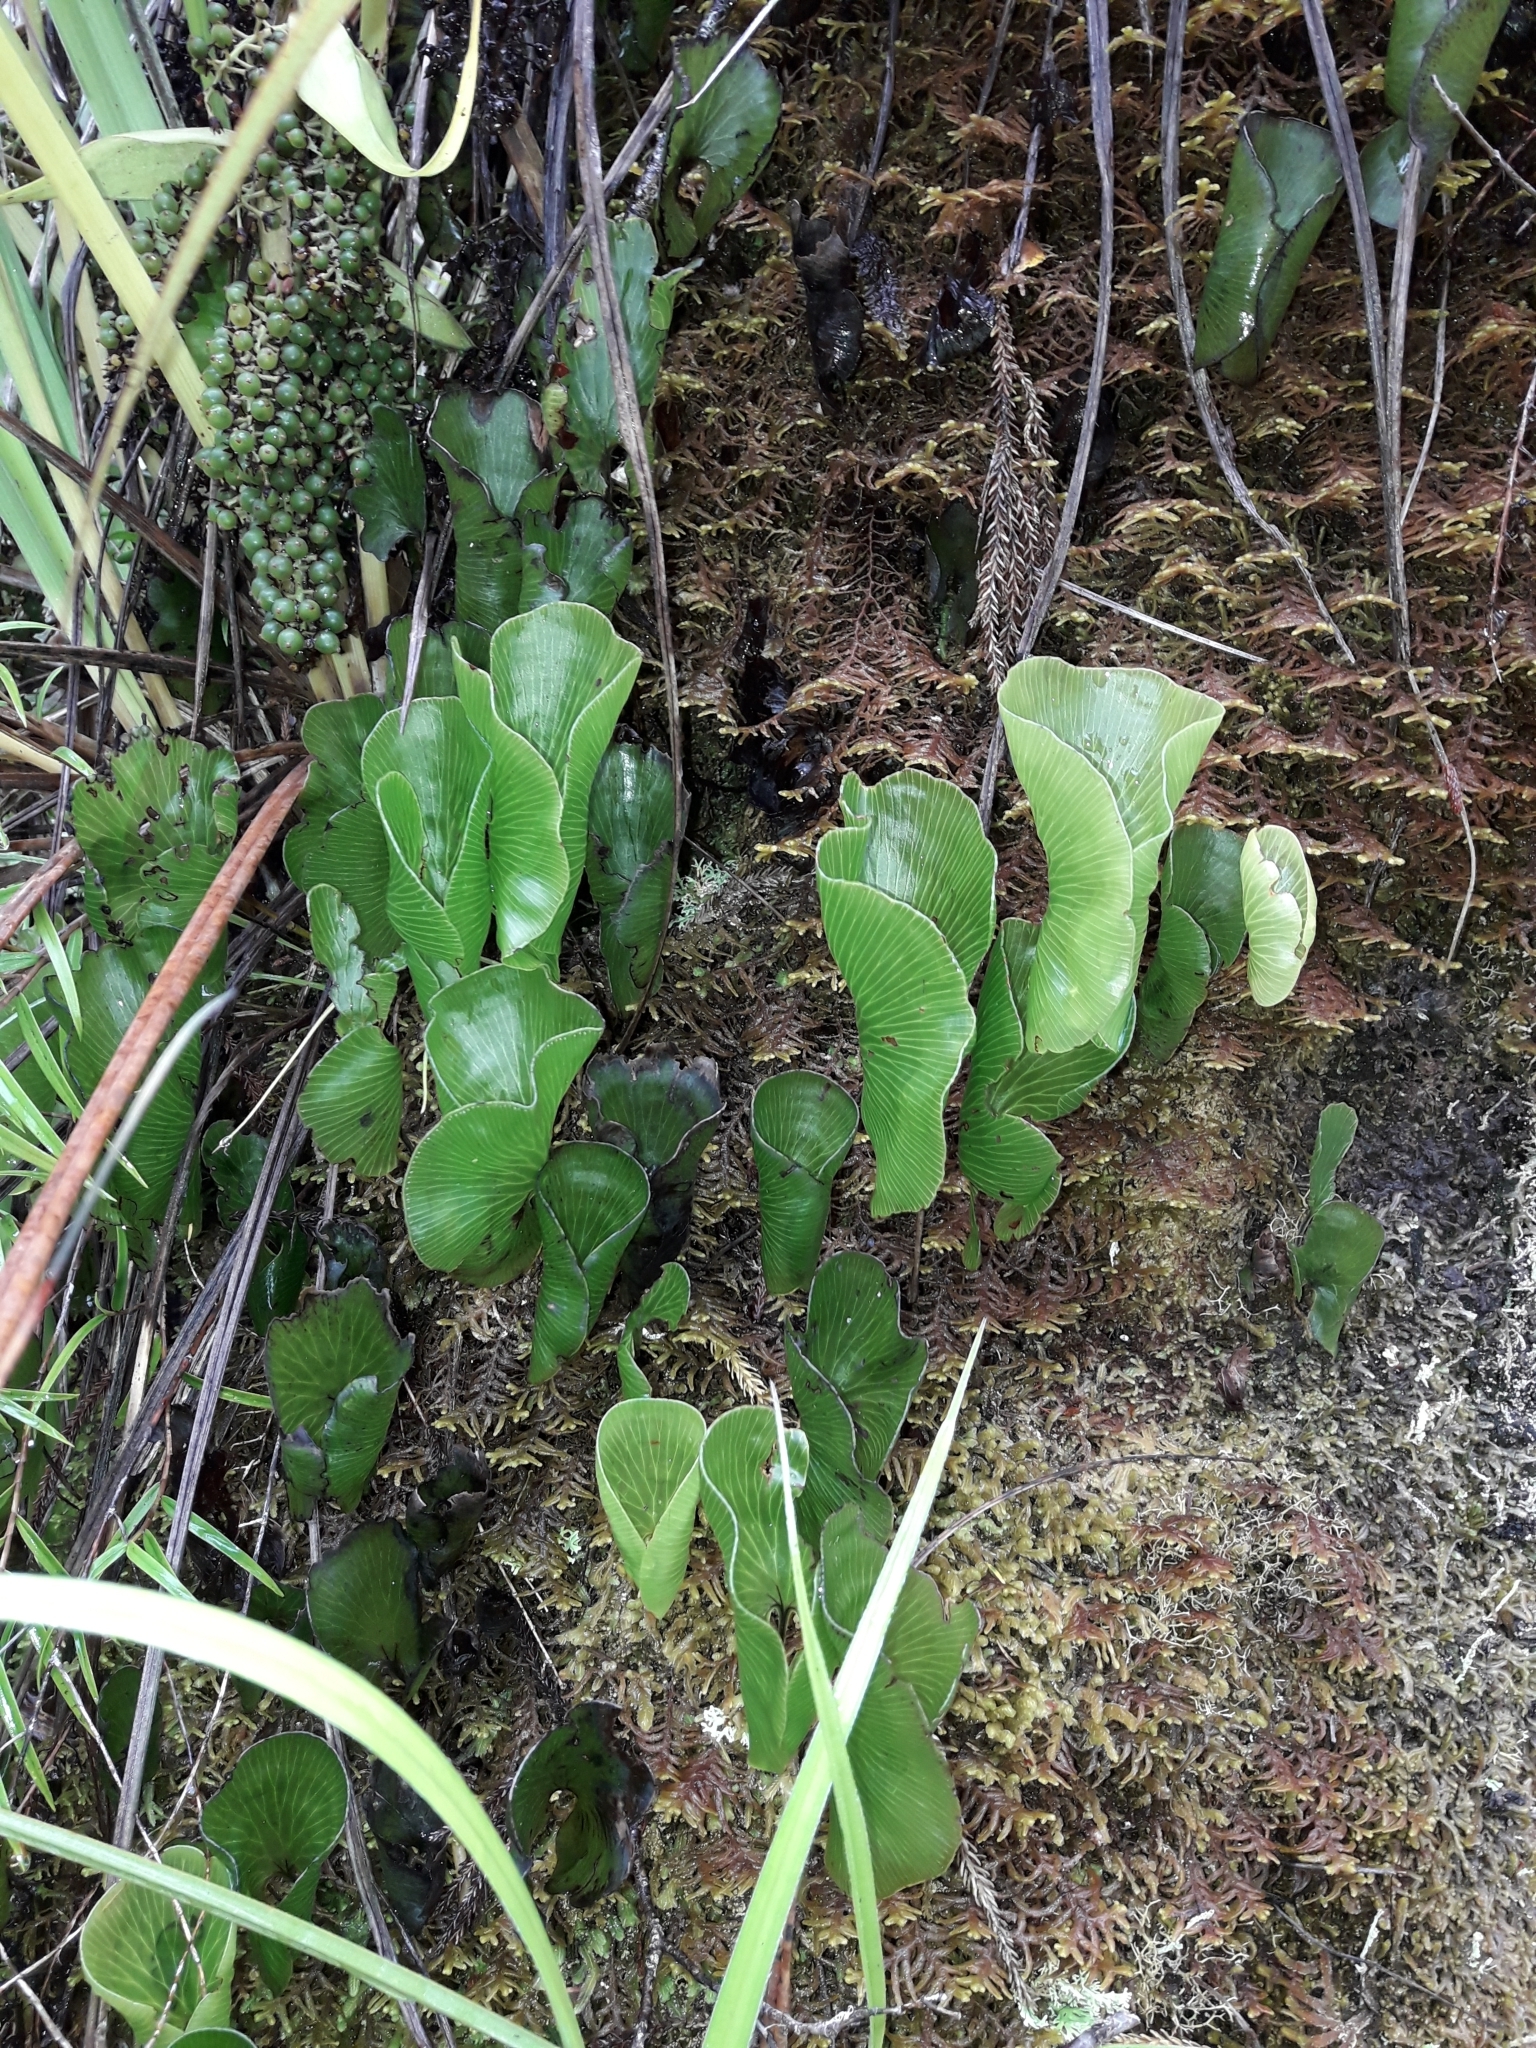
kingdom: Plantae
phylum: Tracheophyta
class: Polypodiopsida
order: Hymenophyllales
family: Hymenophyllaceae
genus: Hymenophyllum
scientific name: Hymenophyllum nephrophyllum
